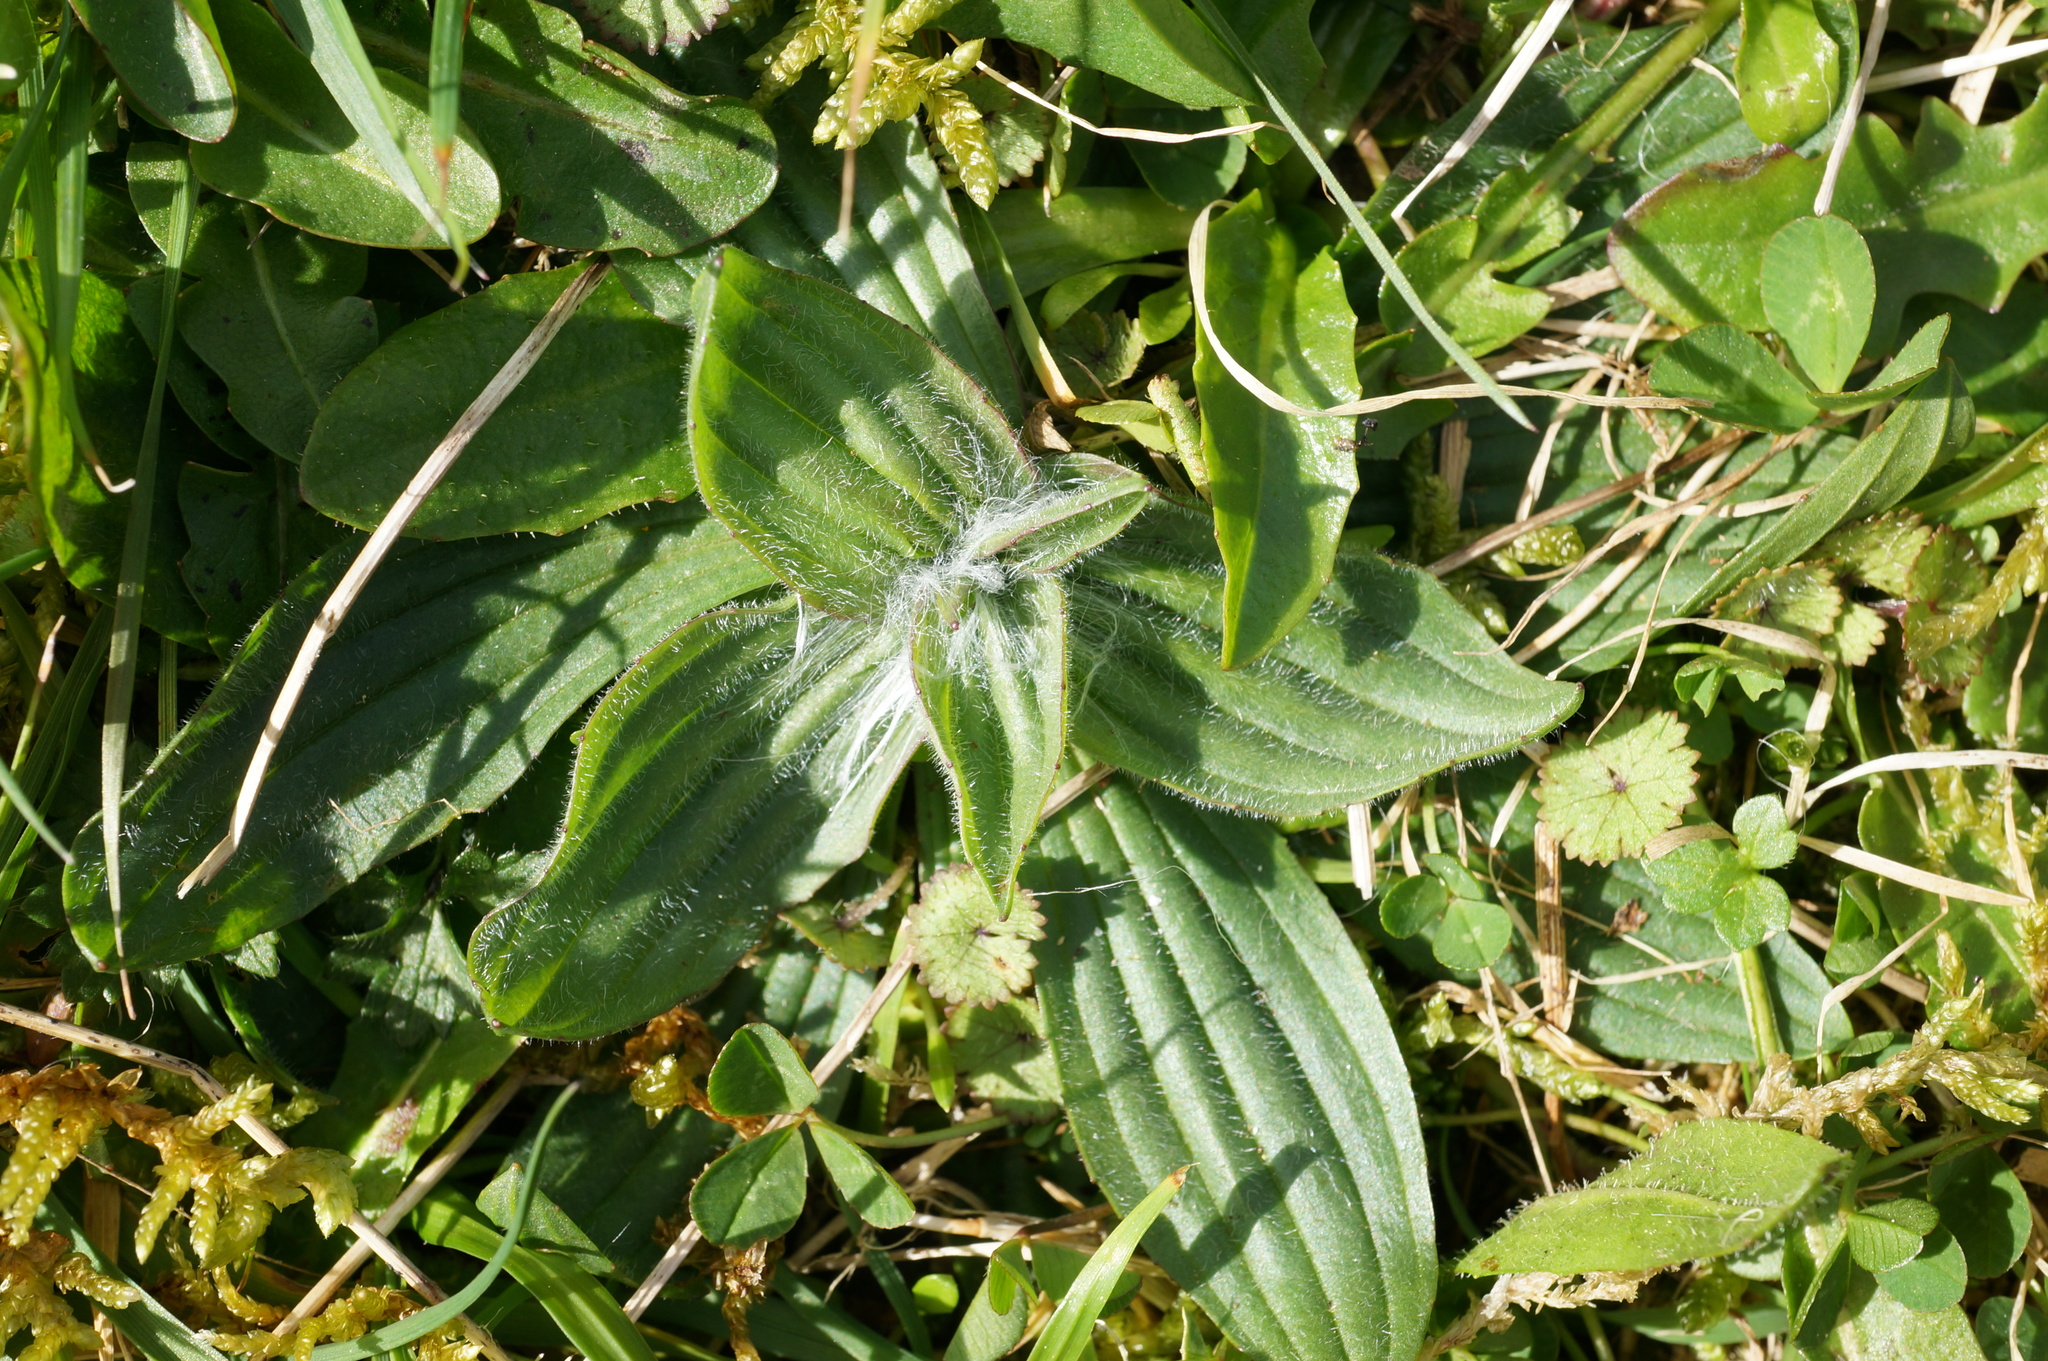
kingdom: Plantae
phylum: Tracheophyta
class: Magnoliopsida
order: Lamiales
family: Plantaginaceae
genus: Plantago
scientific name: Plantago australis
